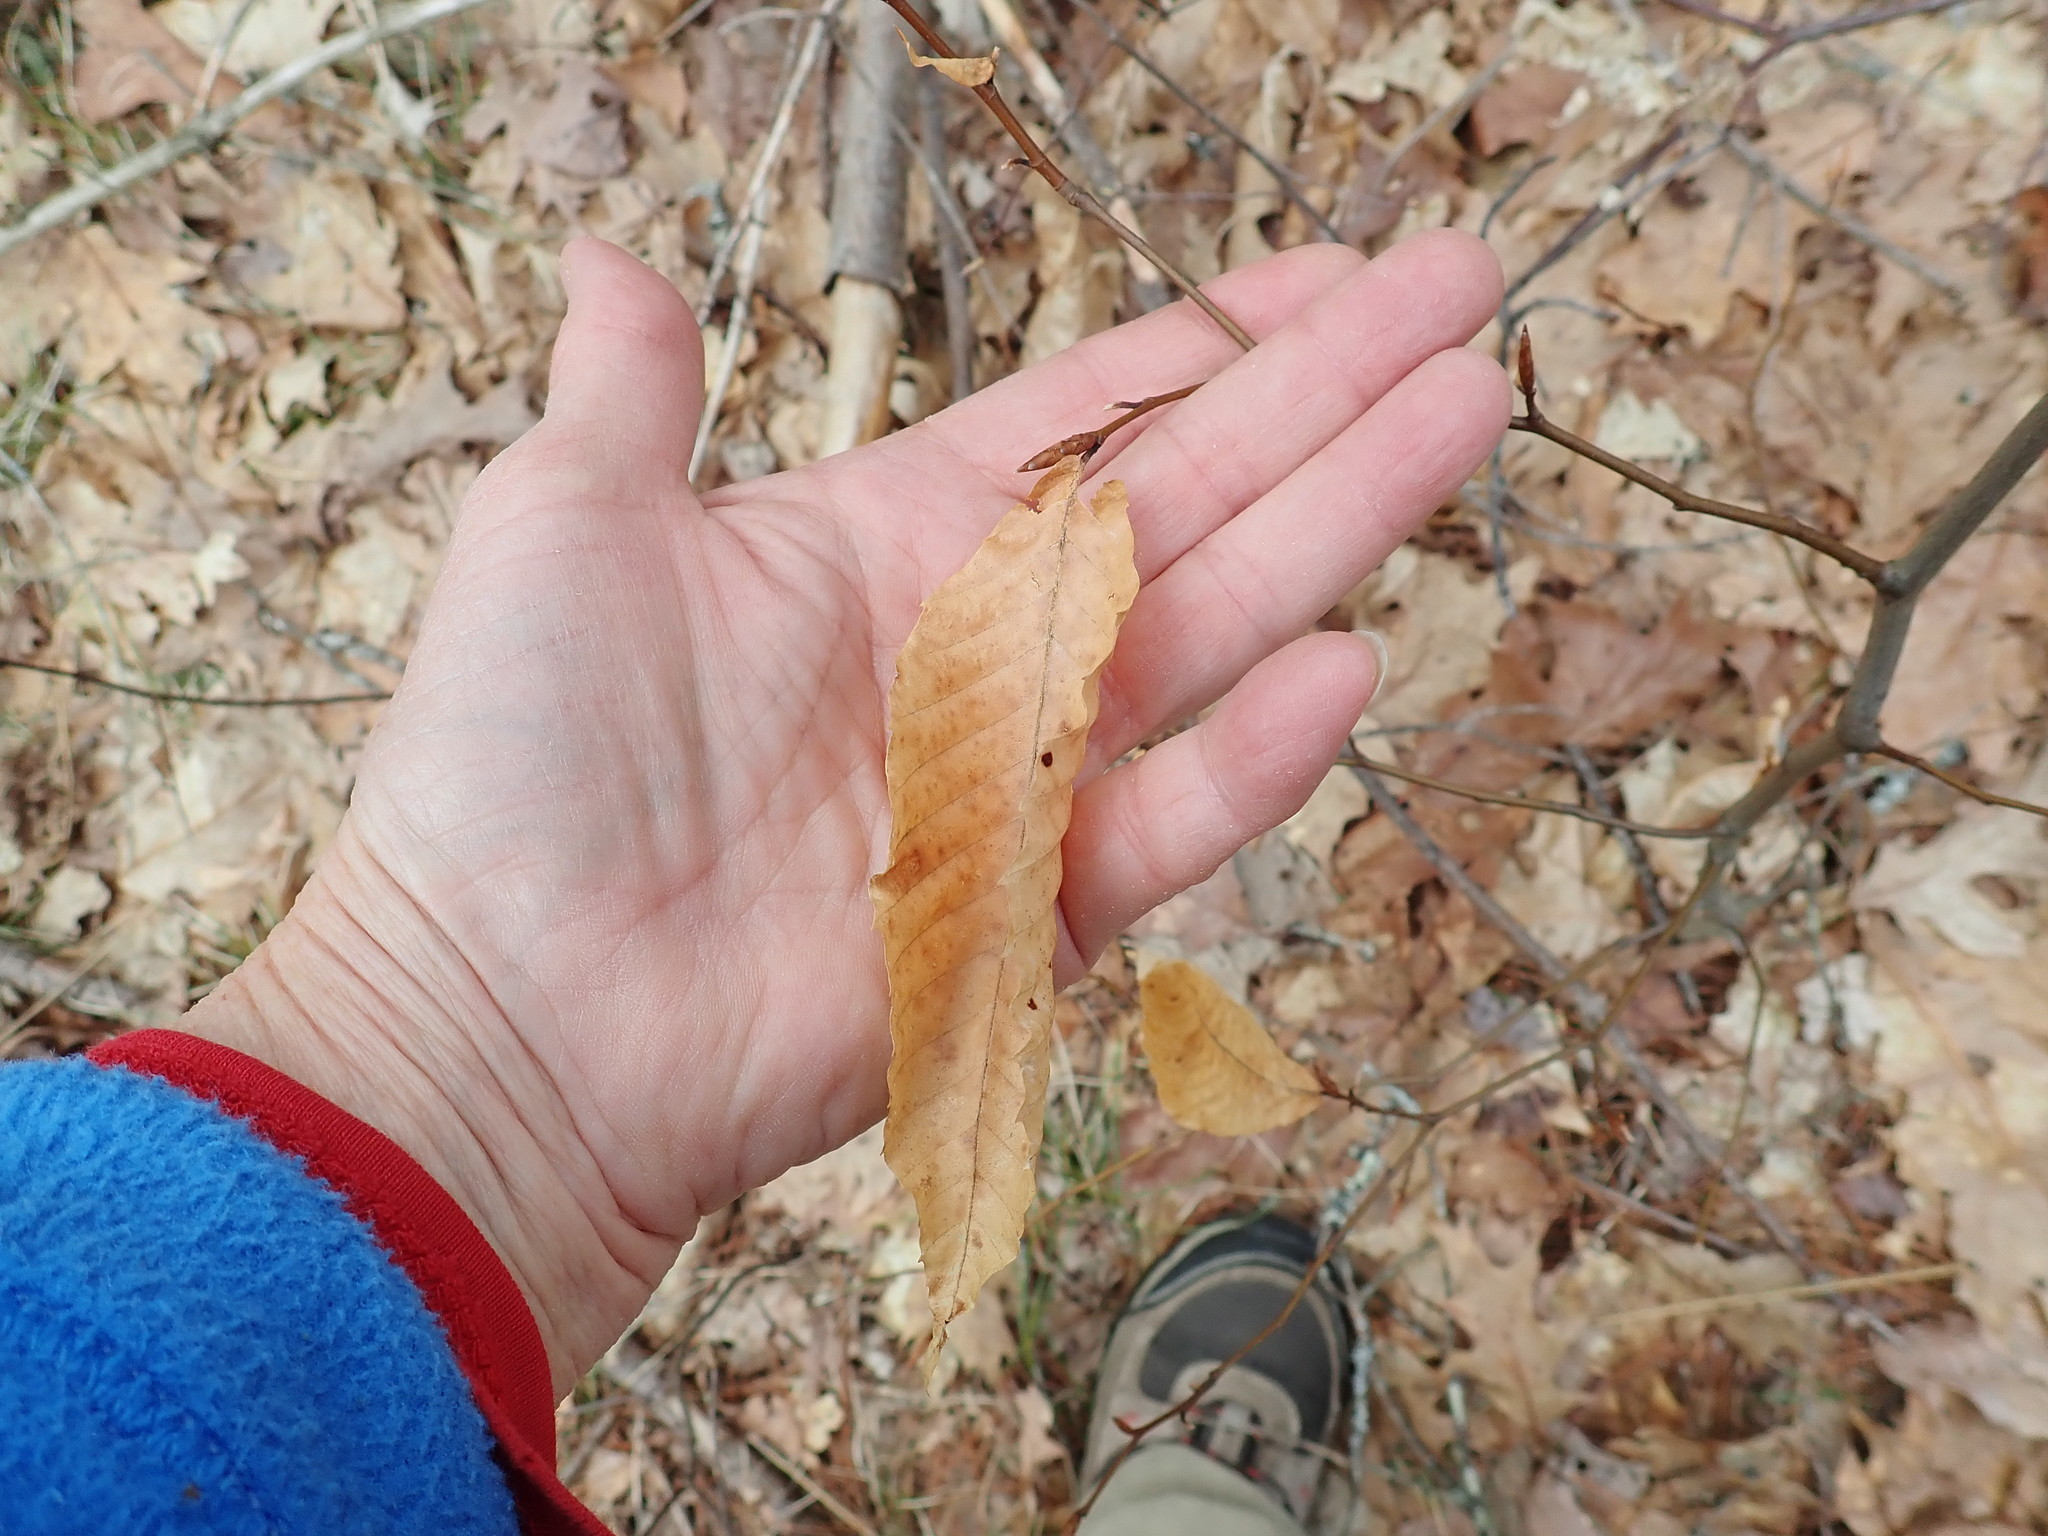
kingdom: Plantae
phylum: Tracheophyta
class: Magnoliopsida
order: Fagales
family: Fagaceae
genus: Fagus
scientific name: Fagus grandifolia
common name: American beech
